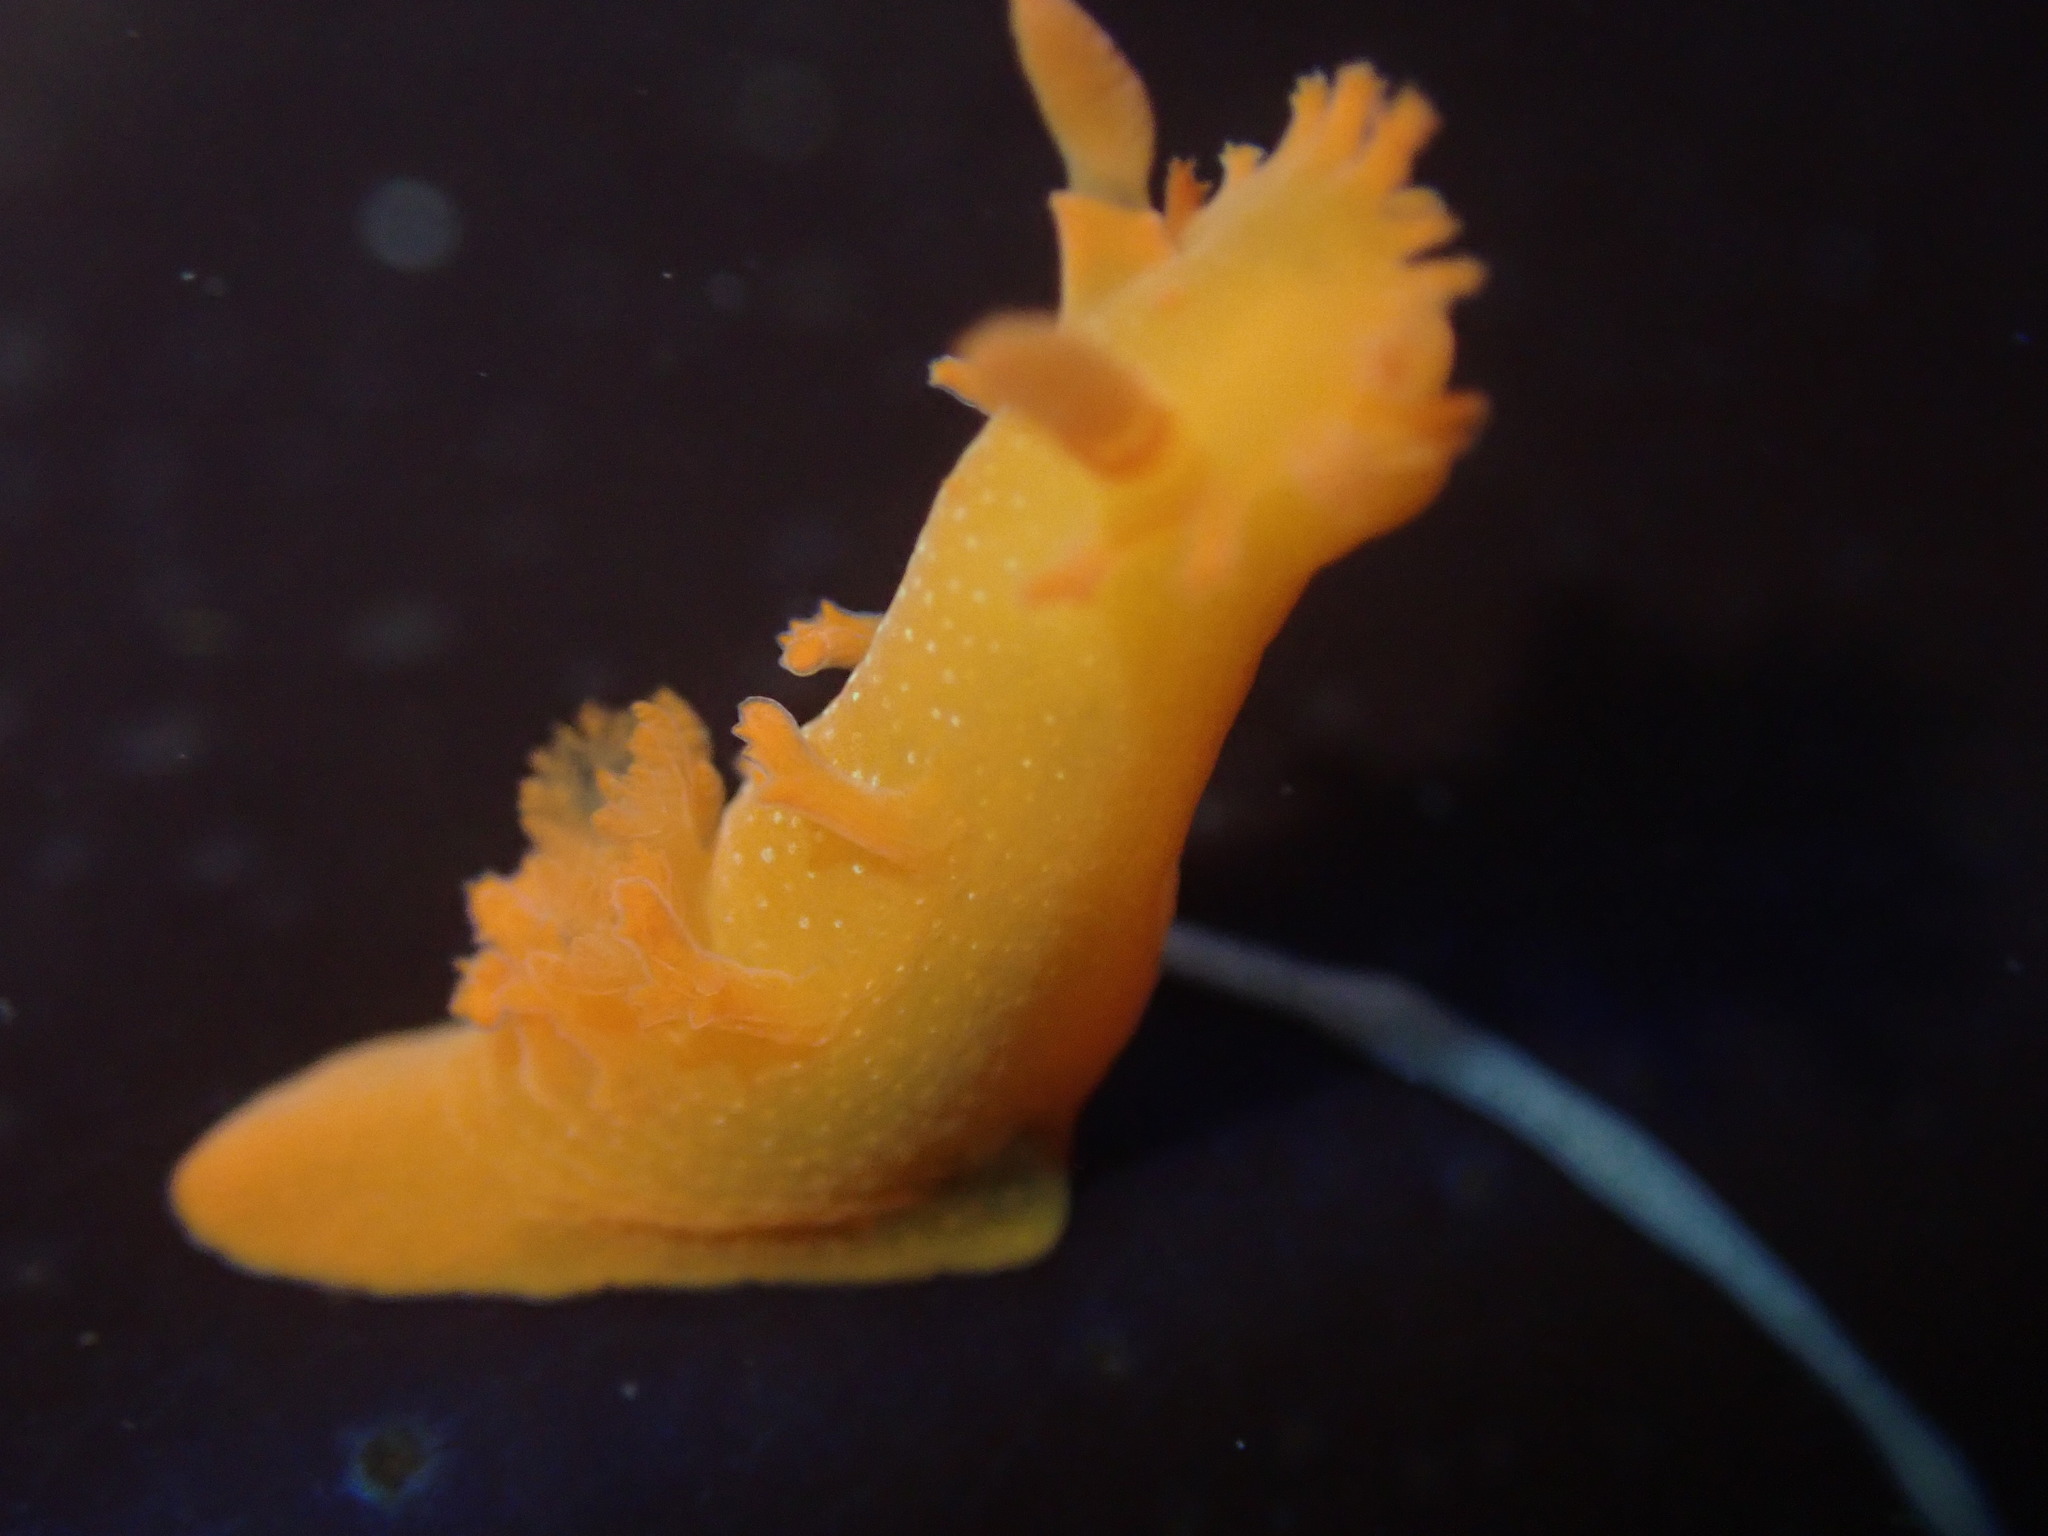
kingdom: Animalia
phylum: Mollusca
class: Gastropoda
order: Nudibranchia
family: Polyceridae
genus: Triopha
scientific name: Triopha maculata
